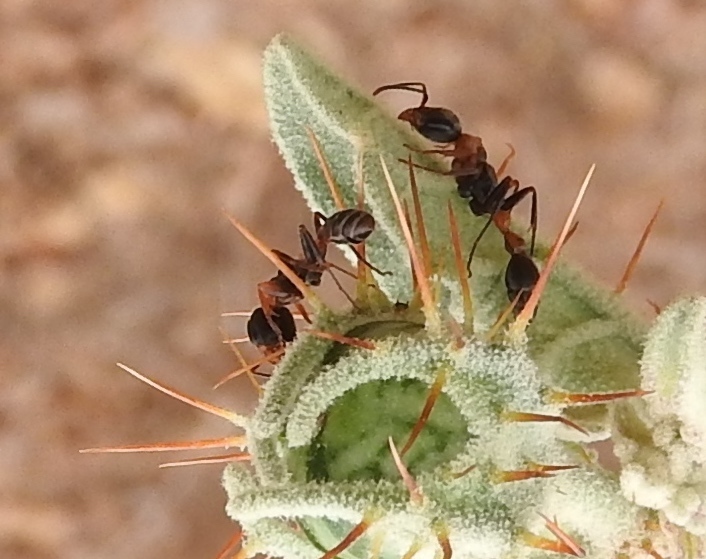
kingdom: Animalia
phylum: Arthropoda
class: Insecta
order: Hymenoptera
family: Formicidae
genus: Pseudomyrmex
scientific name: Pseudomyrmex gracilis
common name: Graceful twig ant
